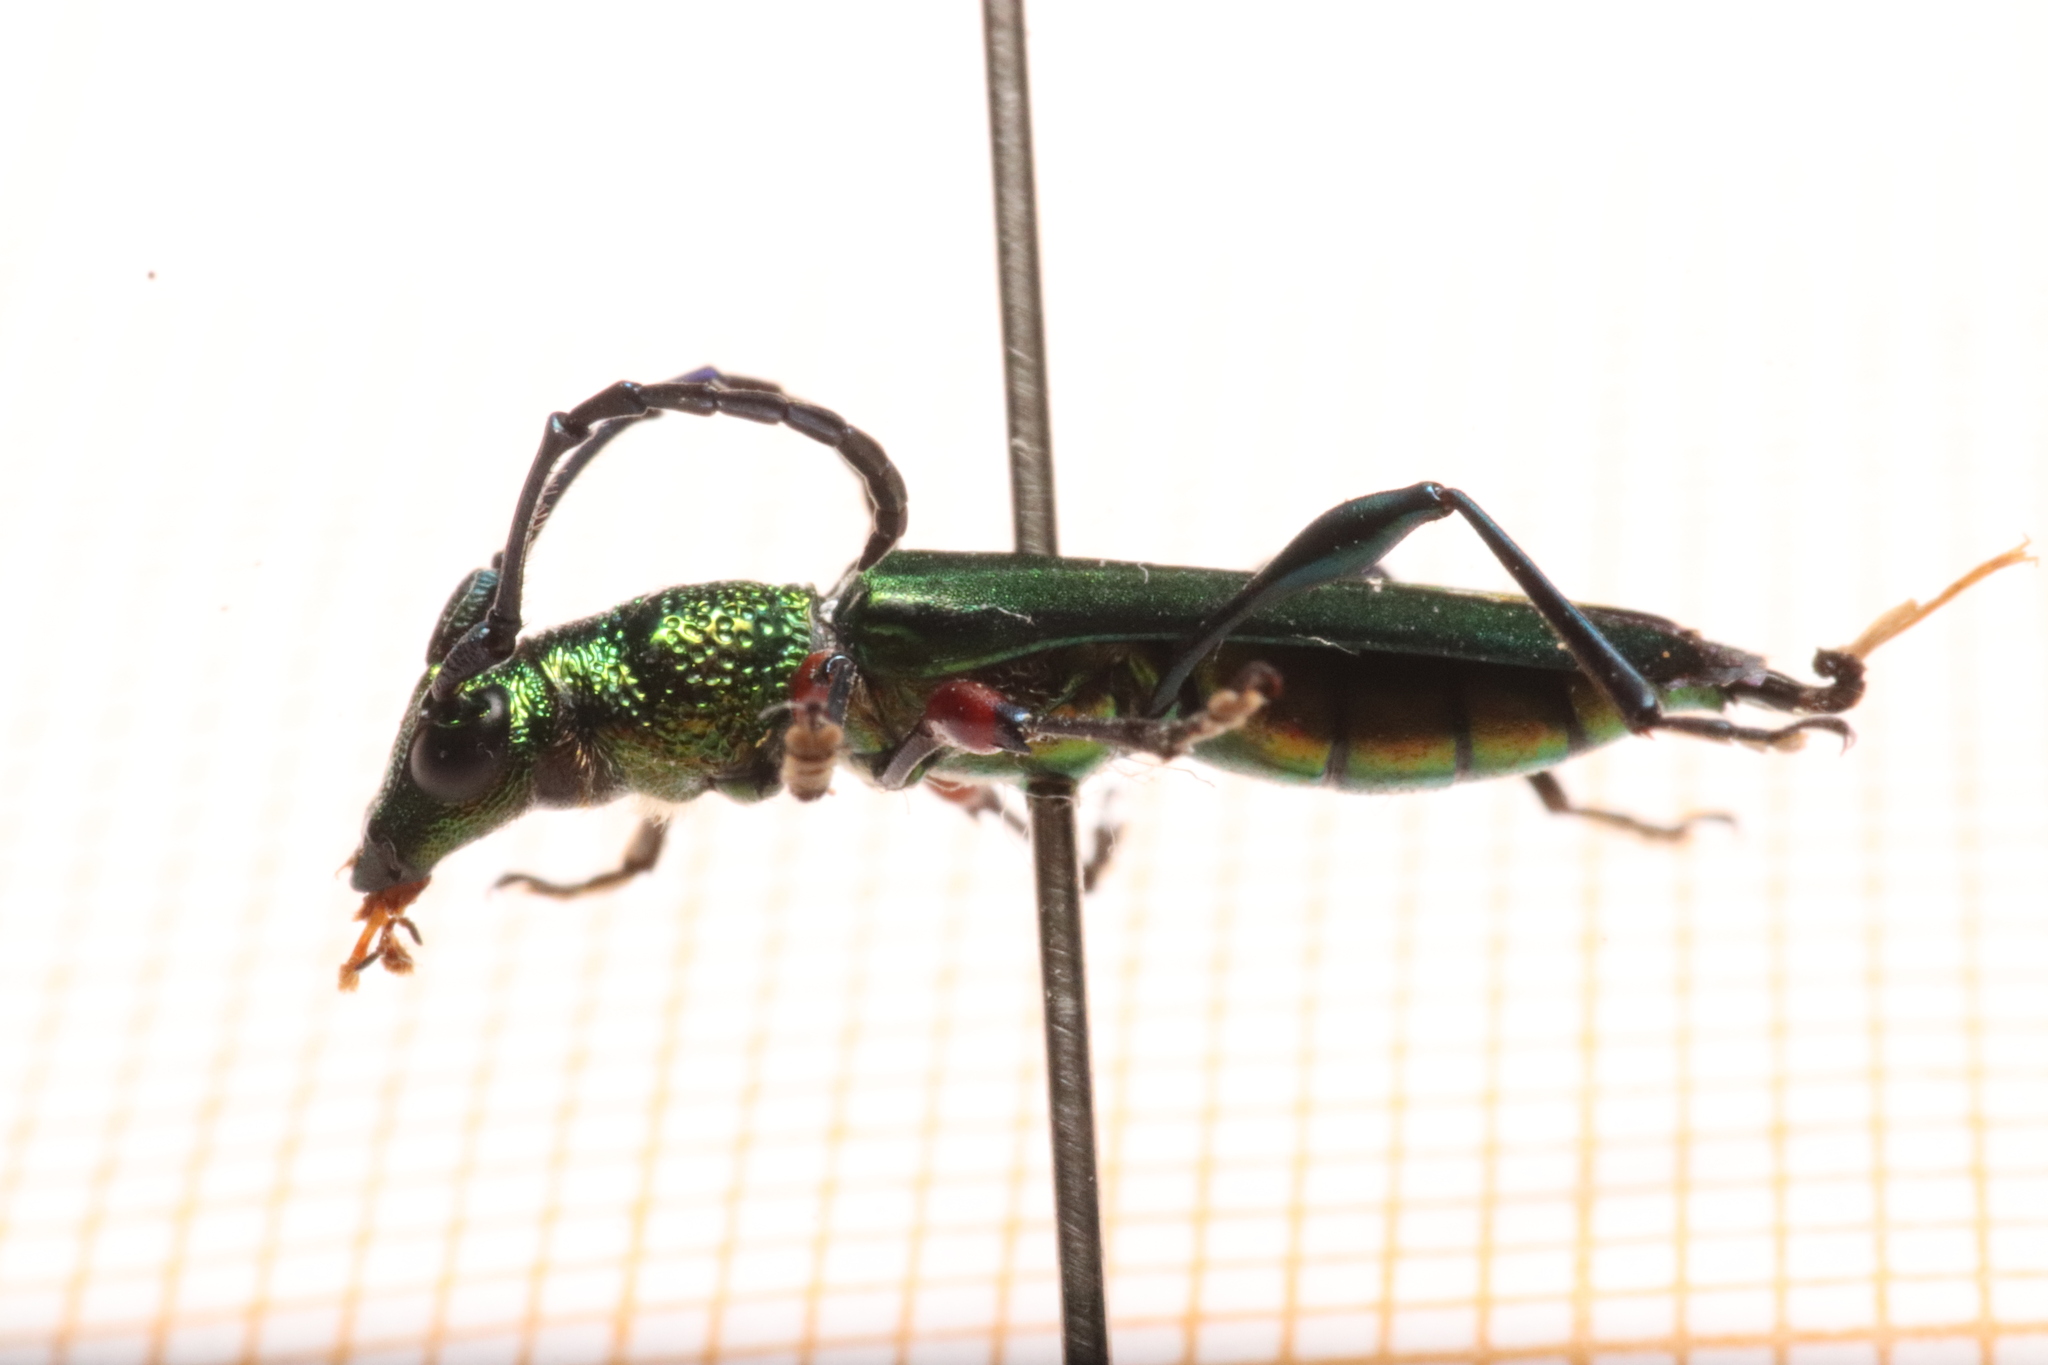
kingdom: Animalia
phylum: Arthropoda
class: Insecta
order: Coleoptera
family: Cerambycidae
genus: Phrosyne
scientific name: Phrosyne brevicornis
